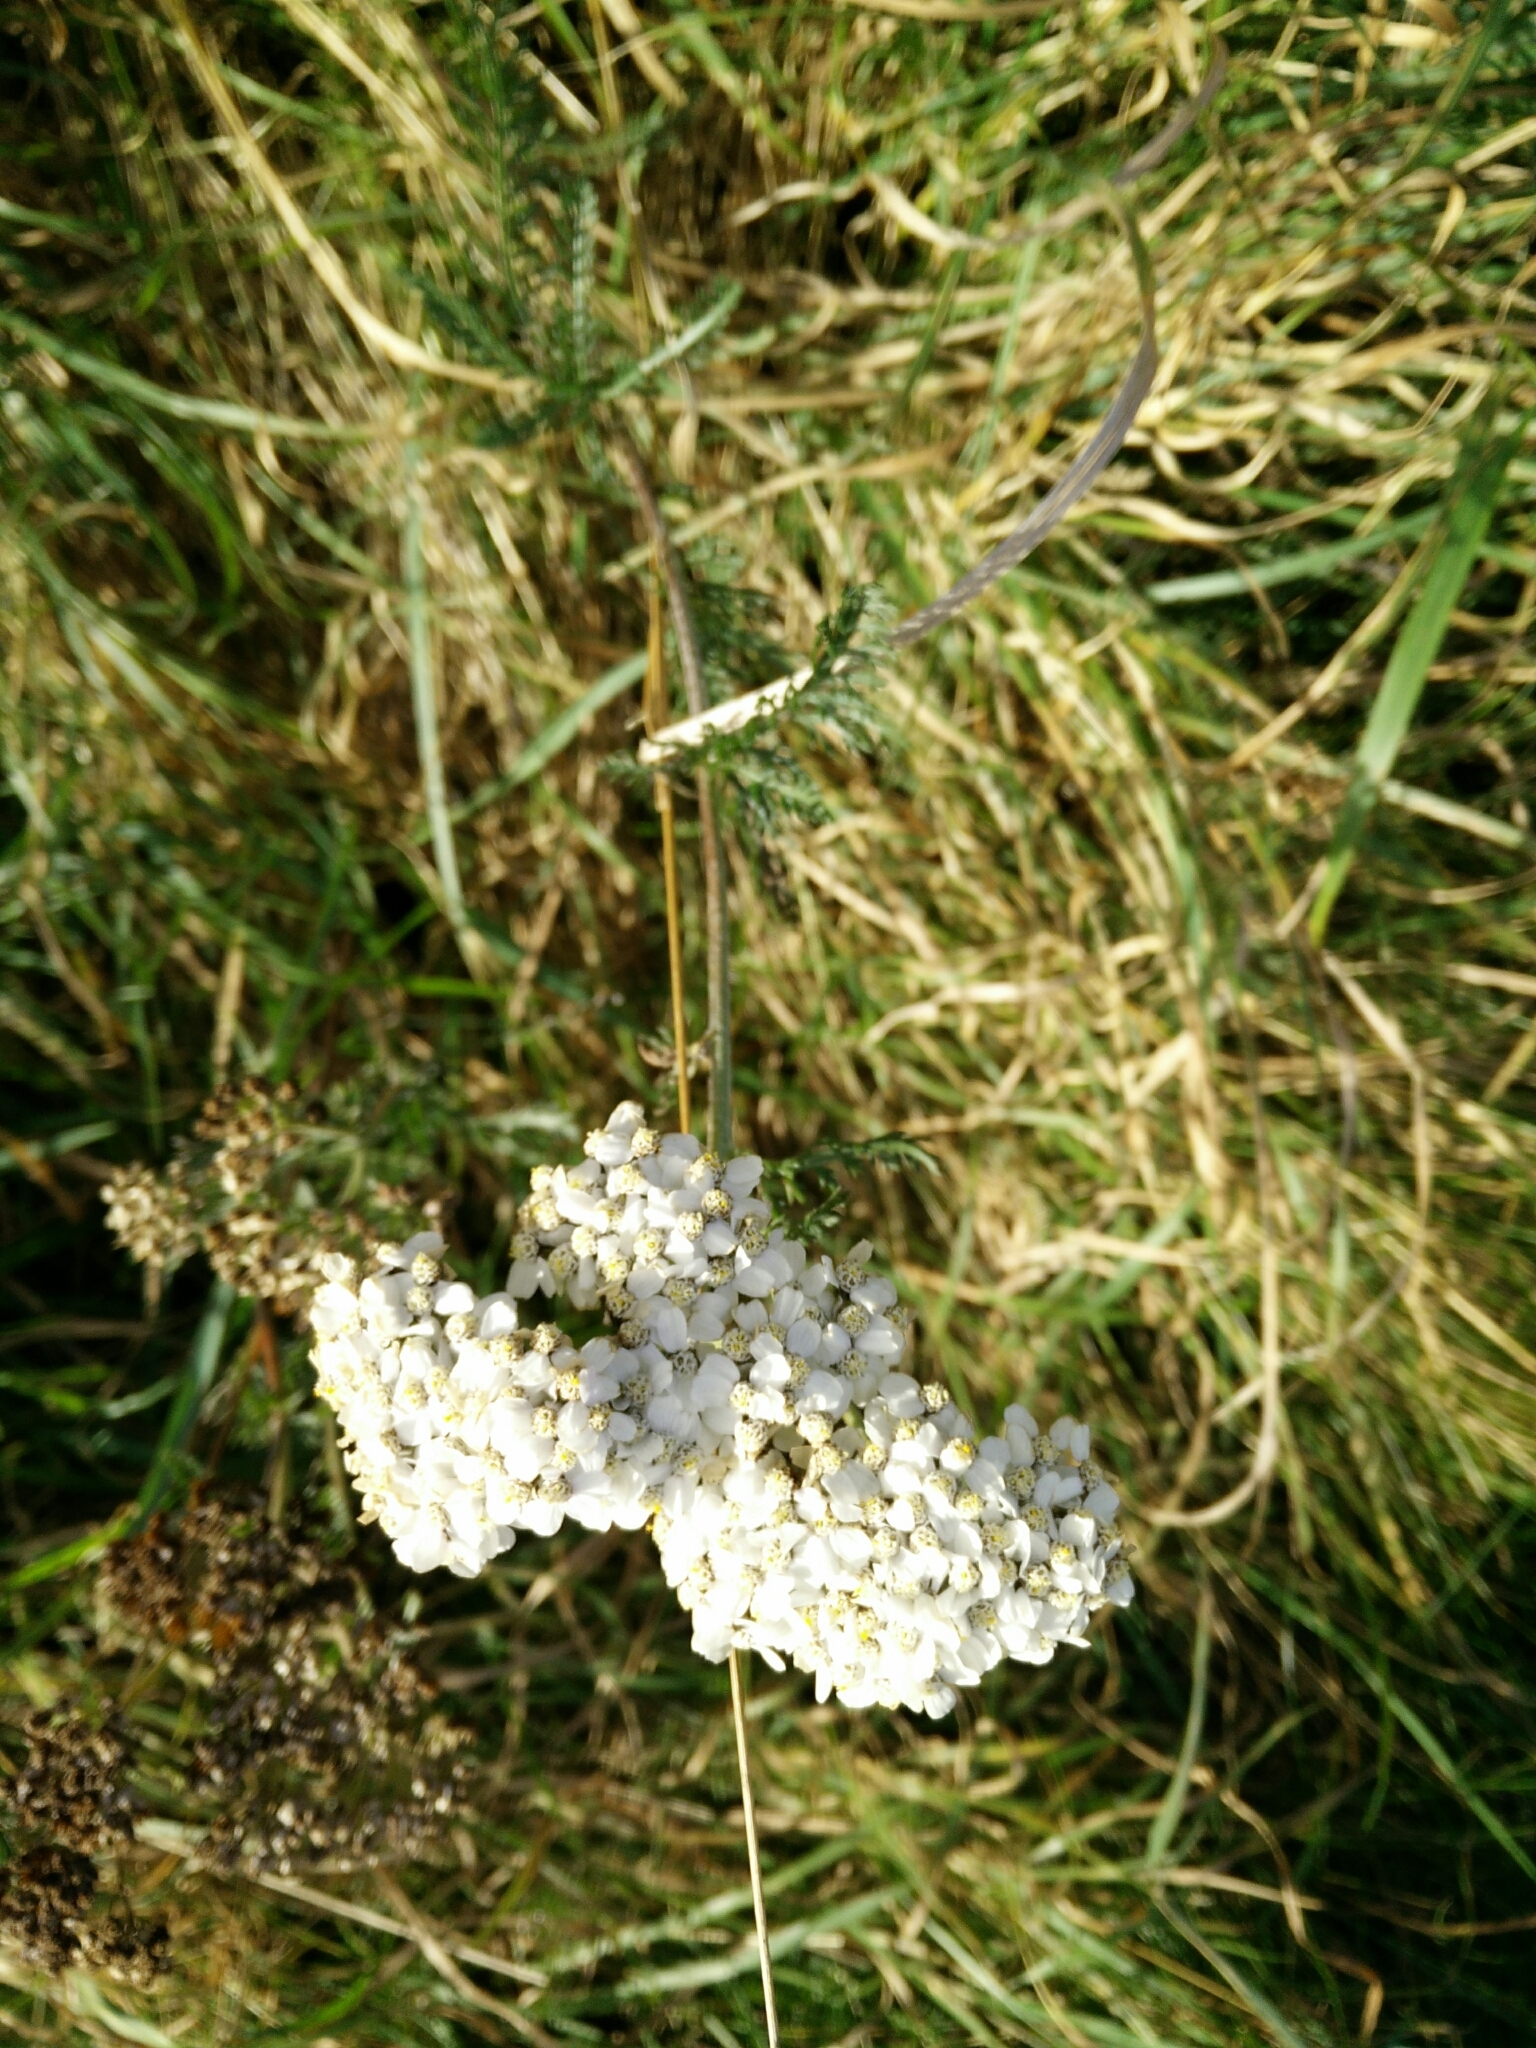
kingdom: Plantae
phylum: Tracheophyta
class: Magnoliopsida
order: Asterales
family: Asteraceae
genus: Achillea
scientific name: Achillea millefolium
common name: Yarrow
